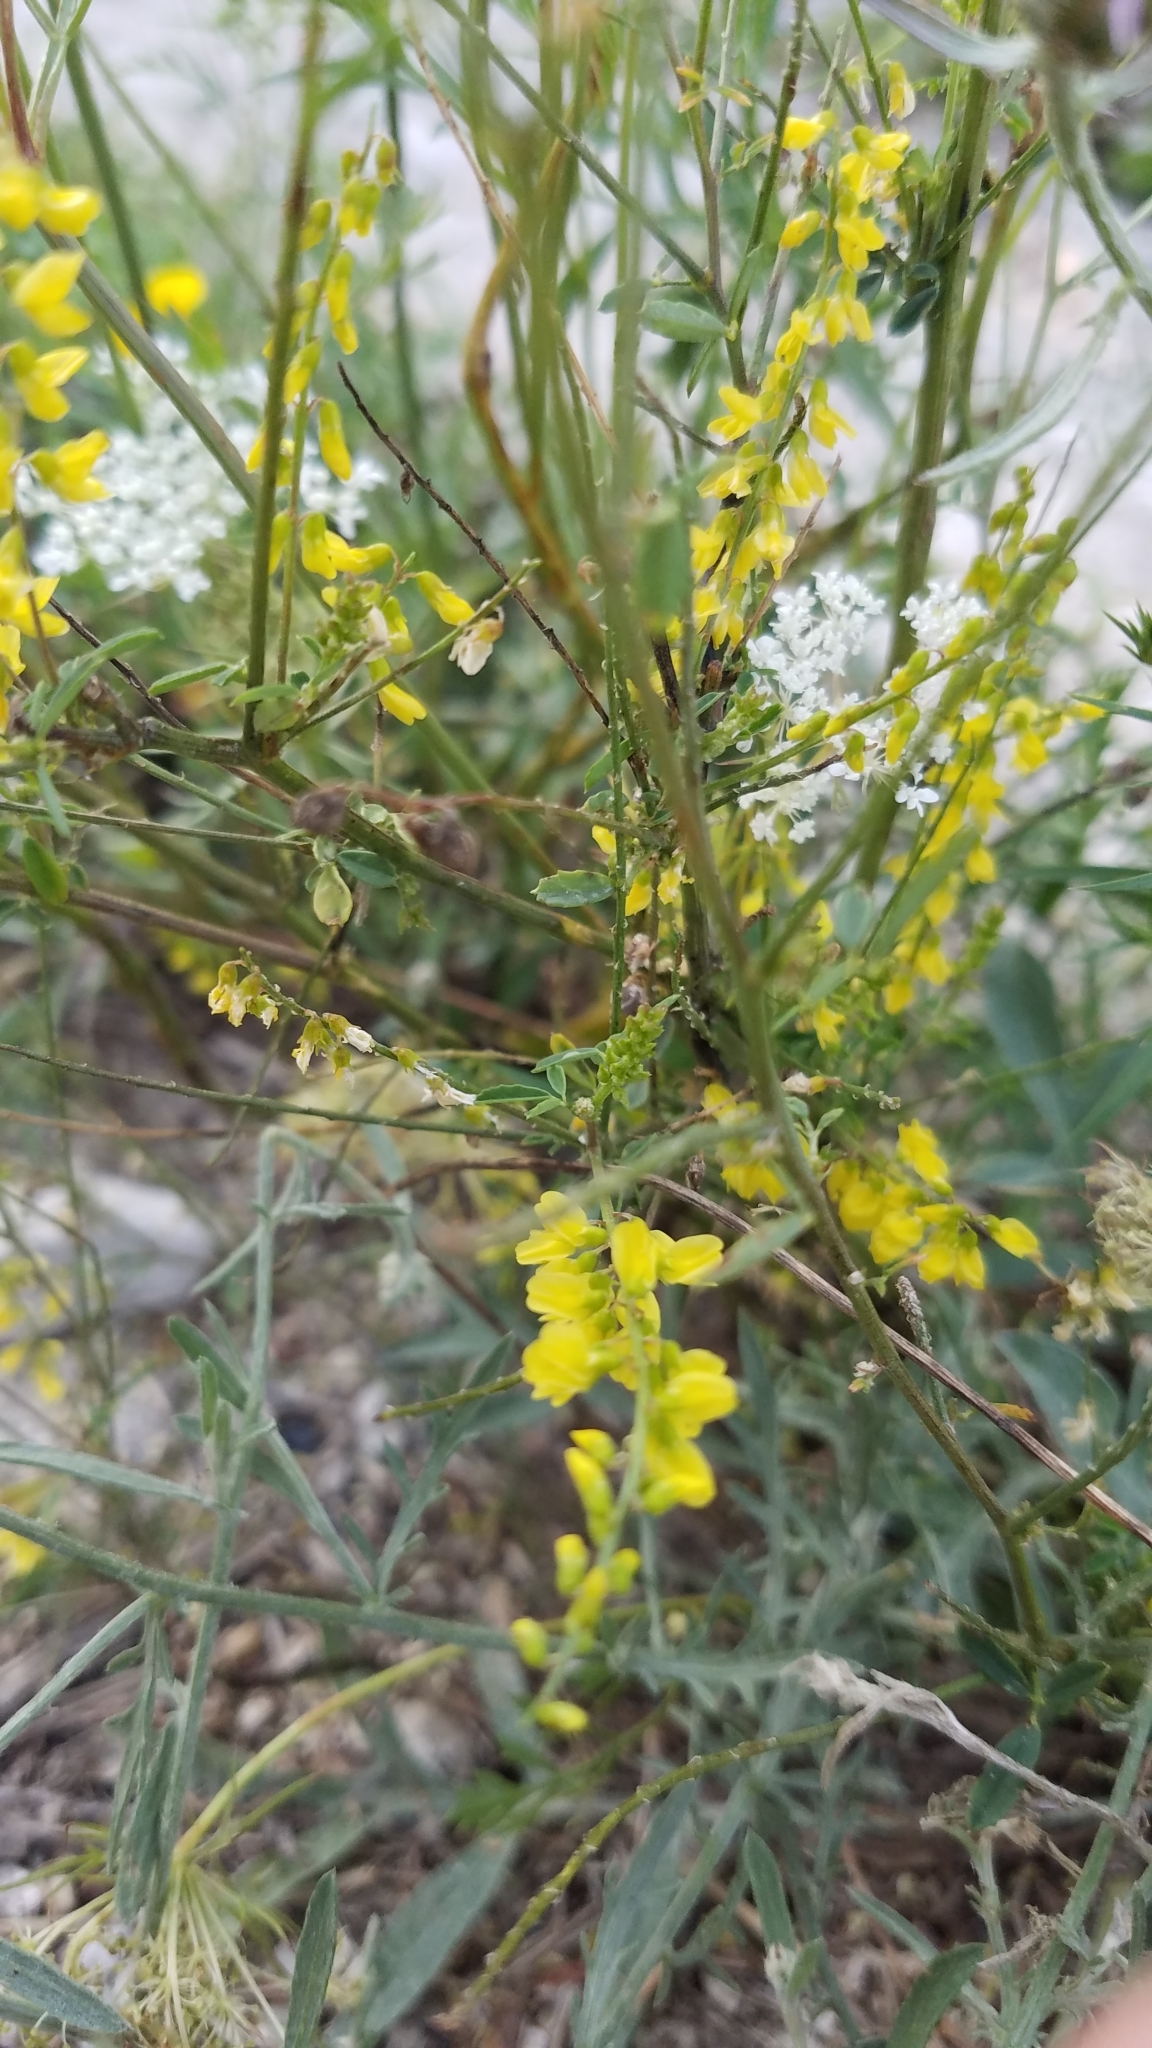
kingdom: Plantae
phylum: Tracheophyta
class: Magnoliopsida
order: Fabales
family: Fabaceae
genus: Melilotus
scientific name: Melilotus officinalis
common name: Sweetclover
